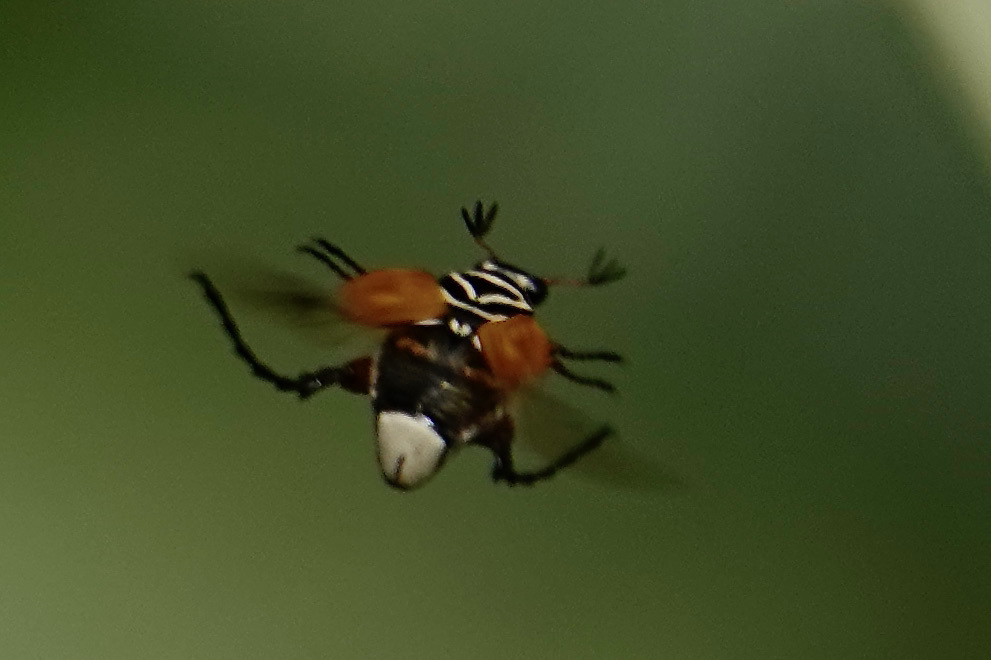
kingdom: Animalia
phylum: Arthropoda
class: Insecta
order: Coleoptera
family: Scarabaeidae
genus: Trigonopeltastes
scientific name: Trigonopeltastes delta
